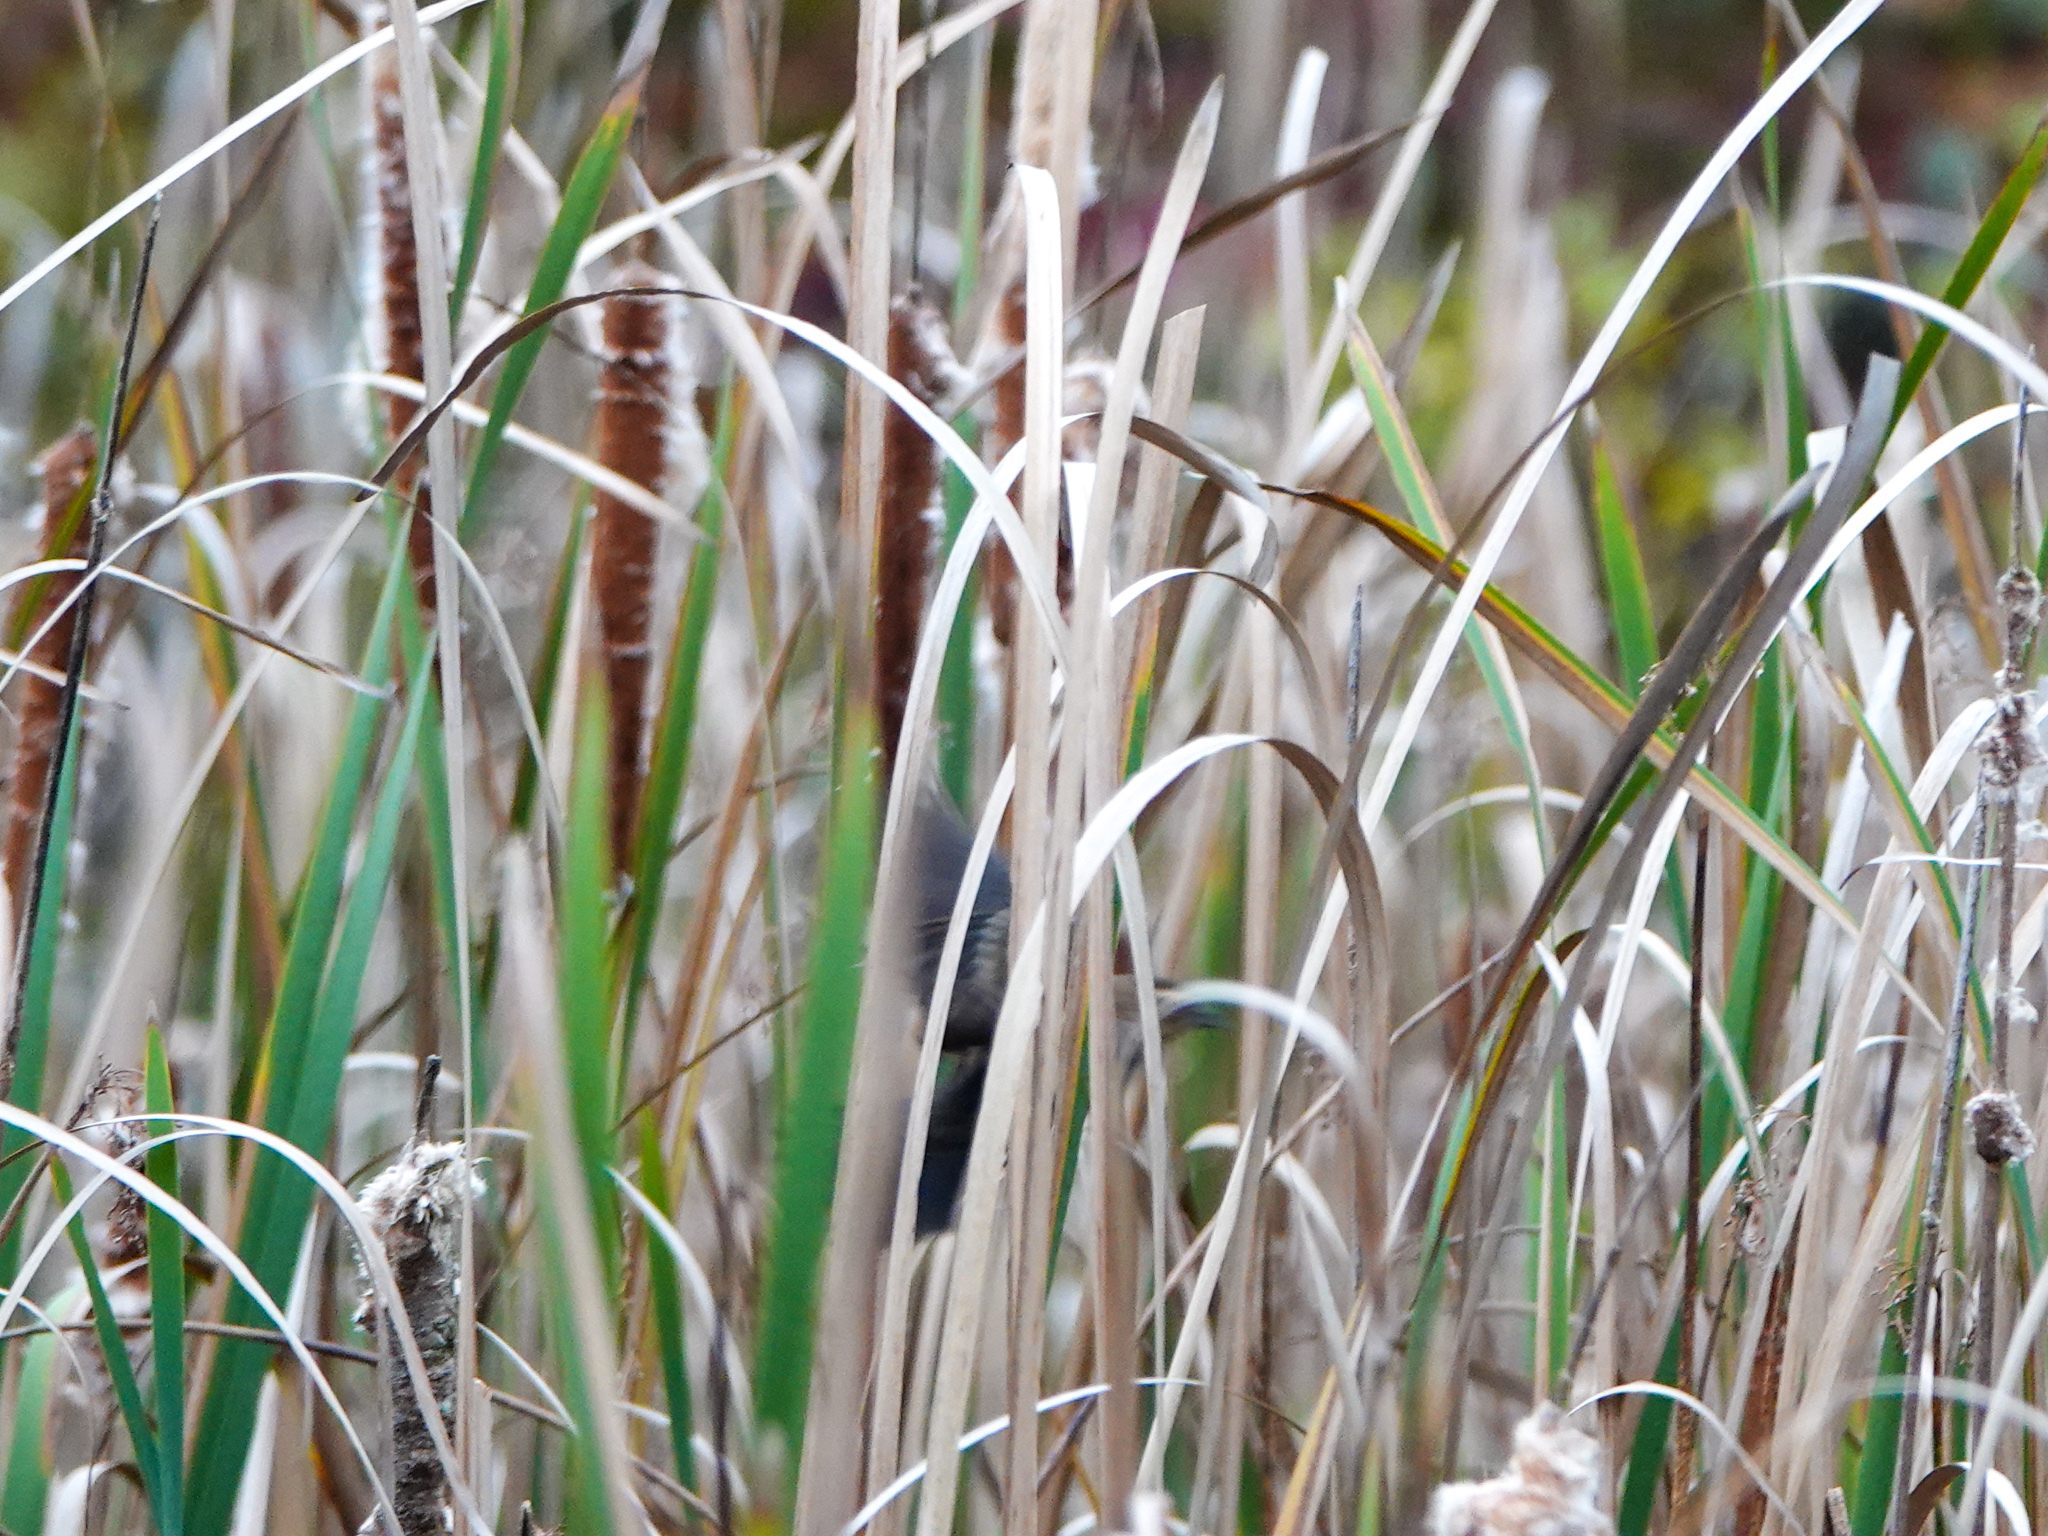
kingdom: Animalia
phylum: Chordata
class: Aves
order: Passeriformes
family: Icteridae
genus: Agelaius
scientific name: Agelaius phoeniceus
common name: Red-winged blackbird
